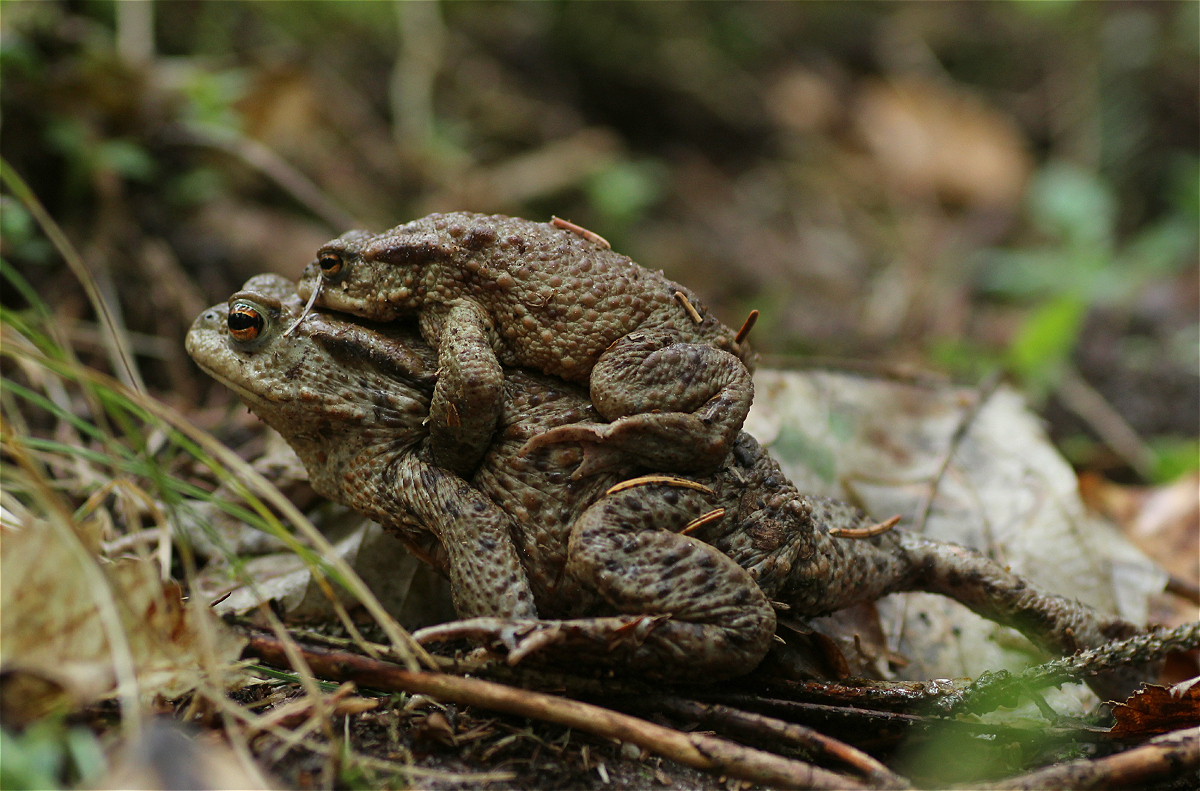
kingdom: Animalia
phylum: Chordata
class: Amphibia
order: Anura
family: Bufonidae
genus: Bufo
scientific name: Bufo bufo
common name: Common toad
